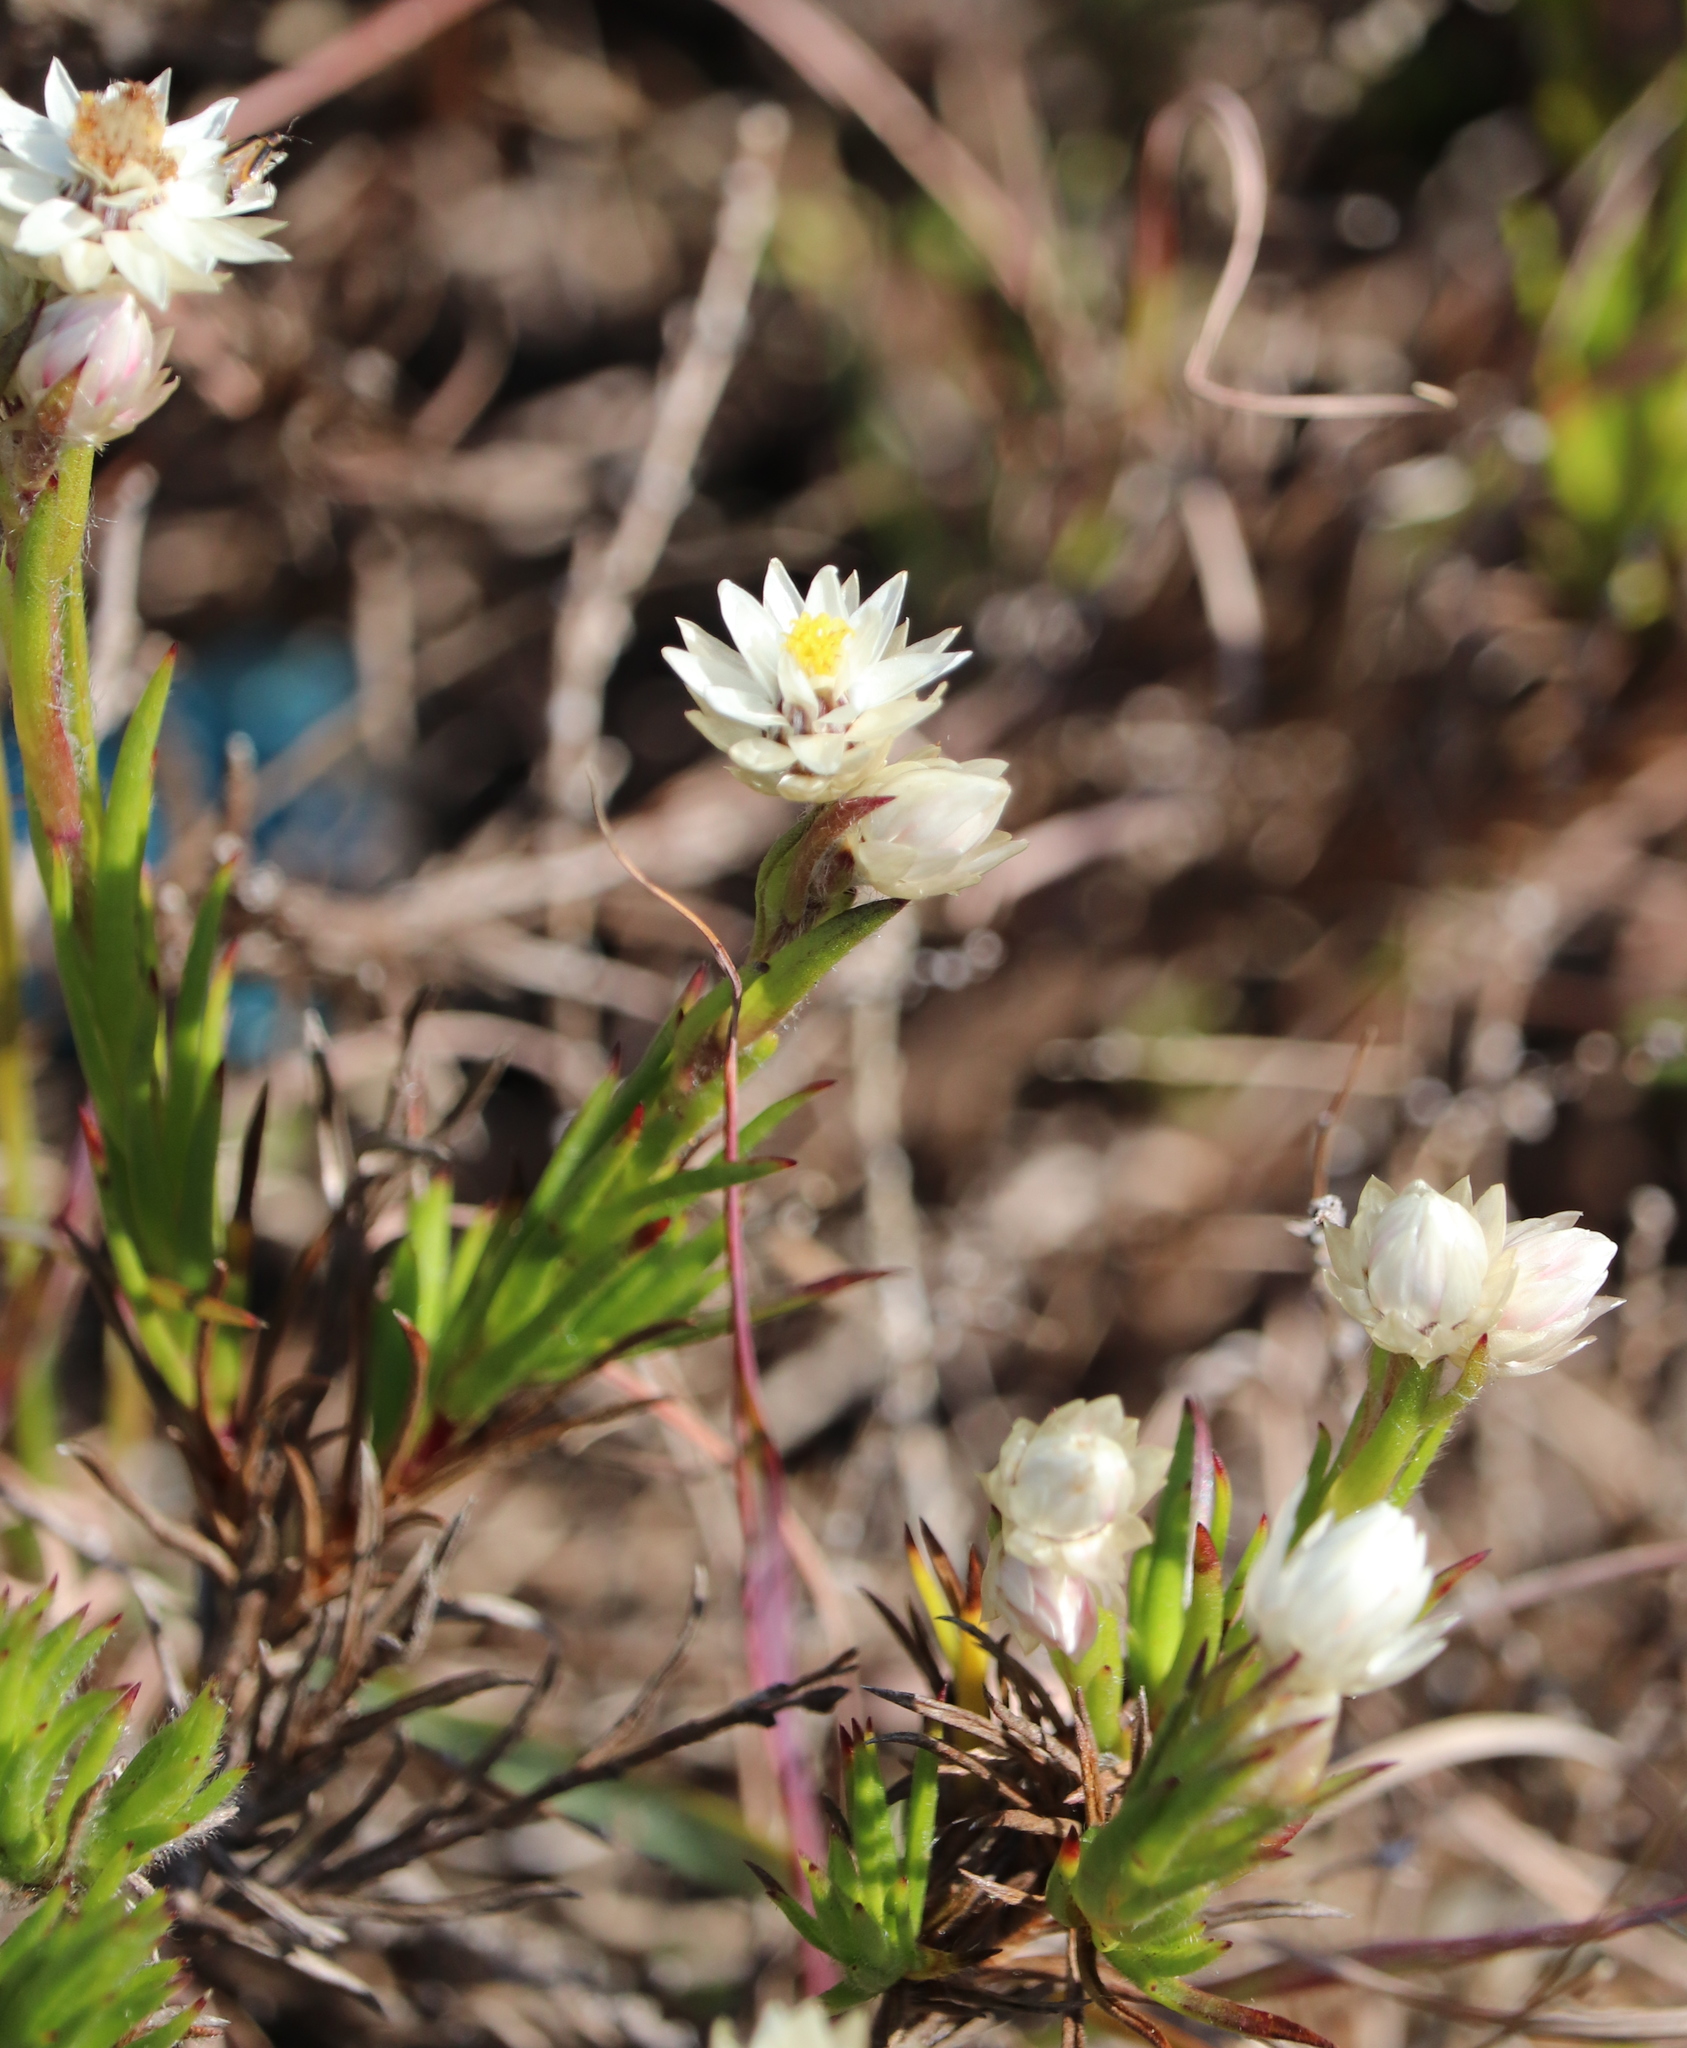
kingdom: Plantae
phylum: Tracheophyta
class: Magnoliopsida
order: Asterales
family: Asteraceae
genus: Achyranthemum
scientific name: Achyranthemum striatum
